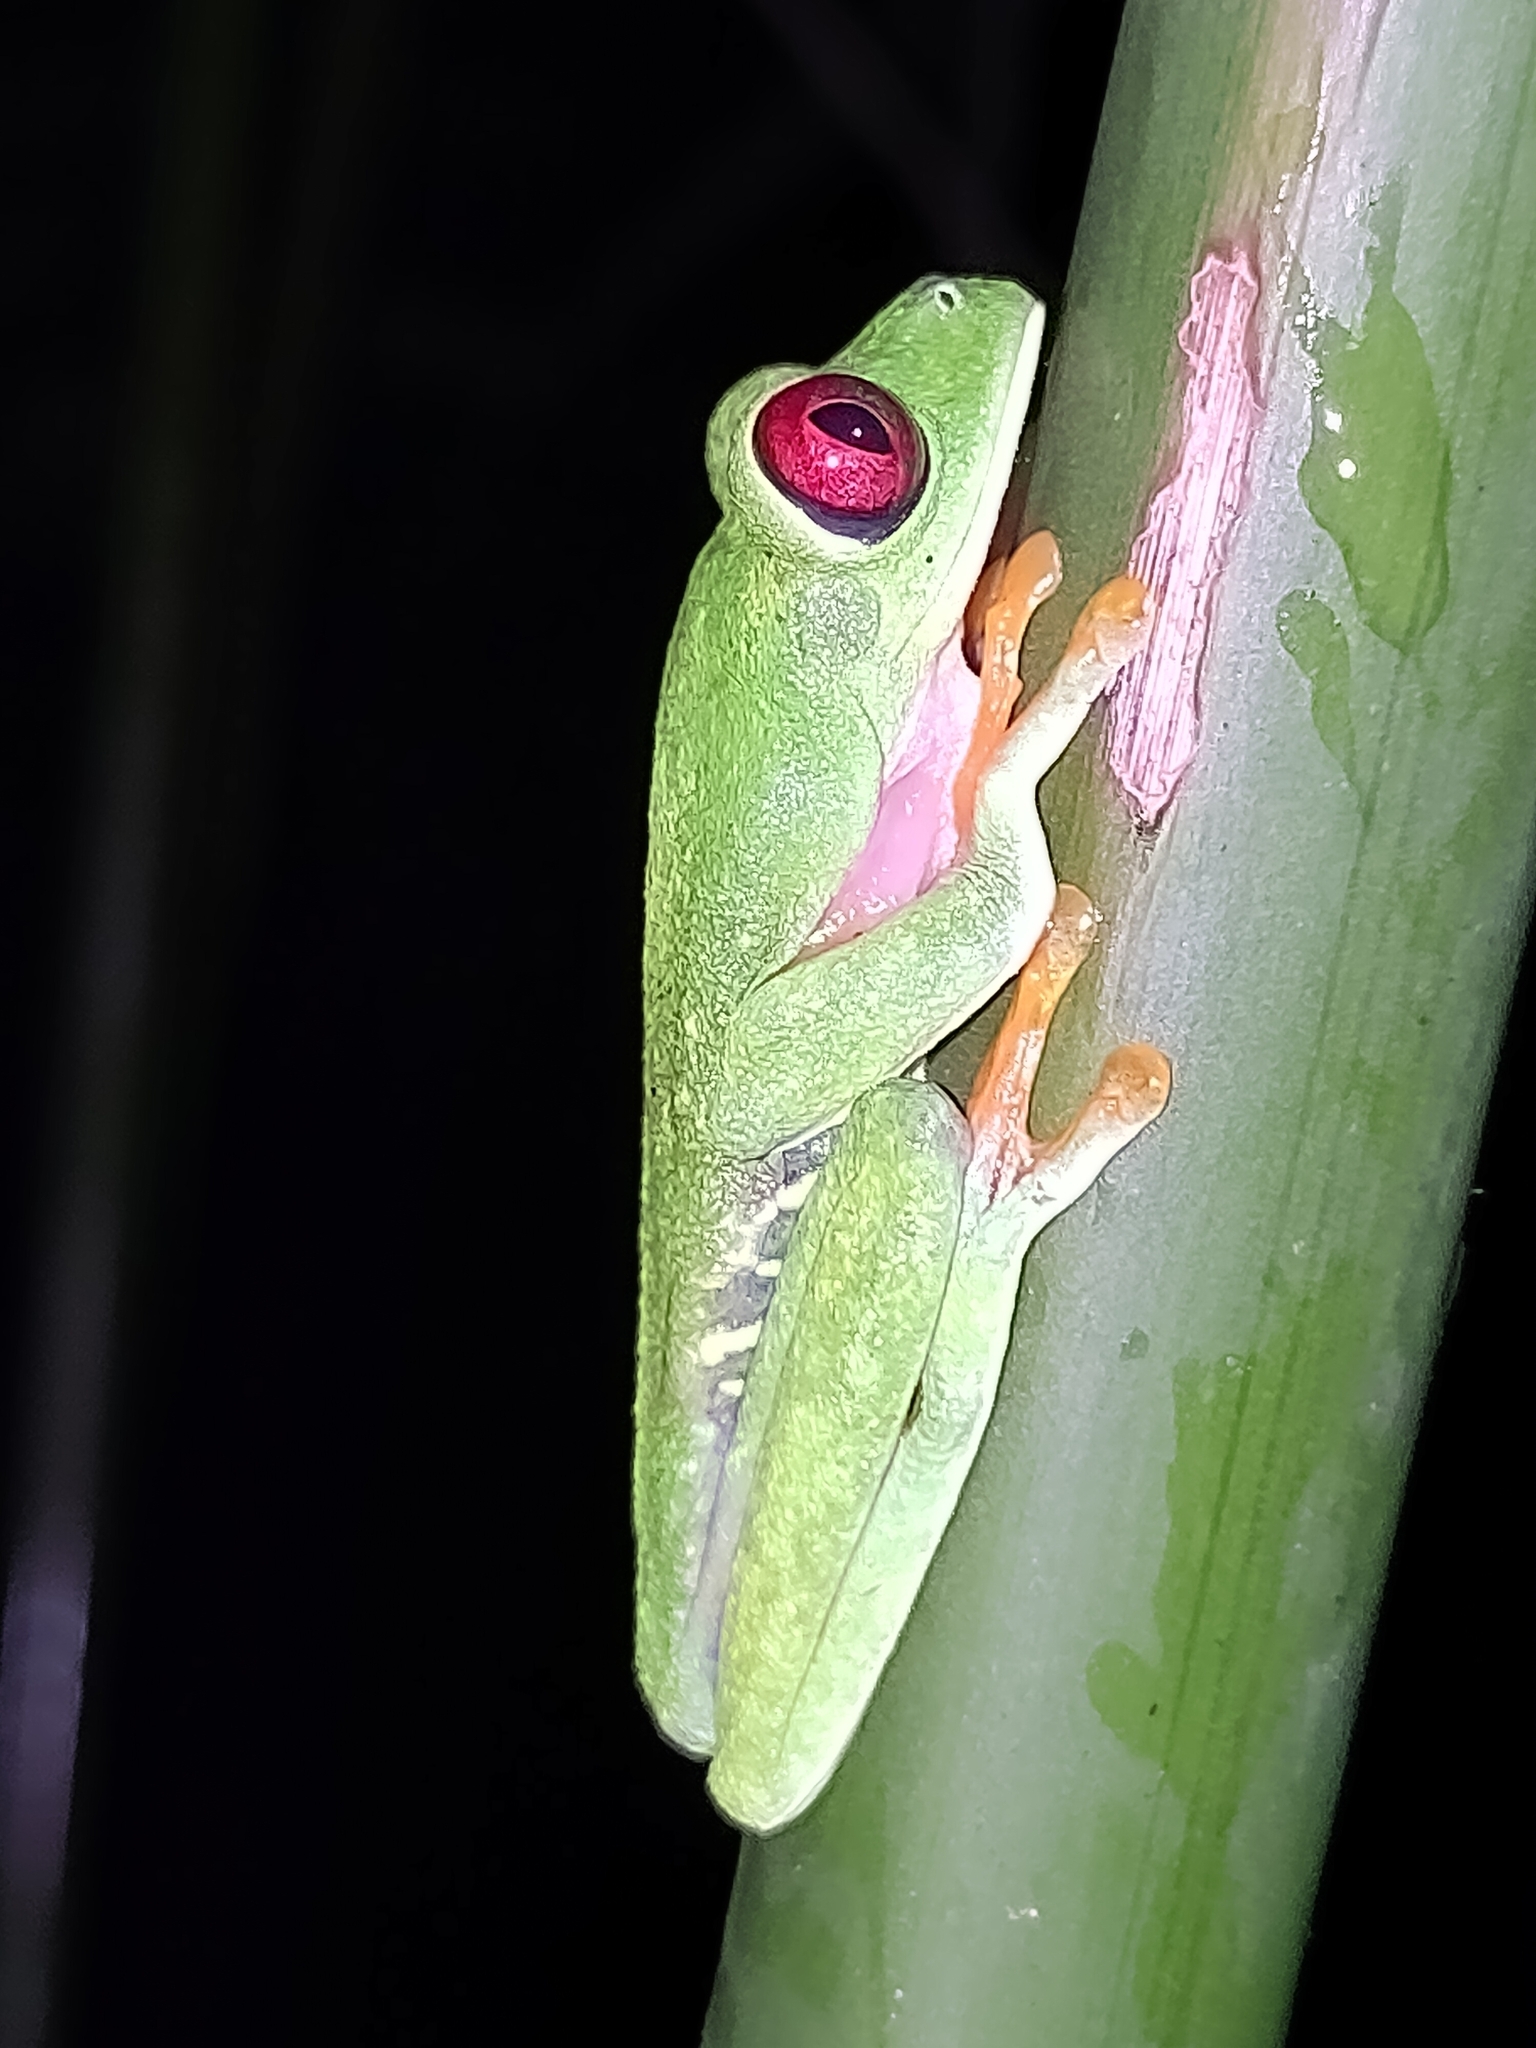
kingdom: Animalia
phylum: Chordata
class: Amphibia
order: Anura
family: Phyllomedusidae
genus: Agalychnis
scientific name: Agalychnis callidryas
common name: Red-eyed treefrog
